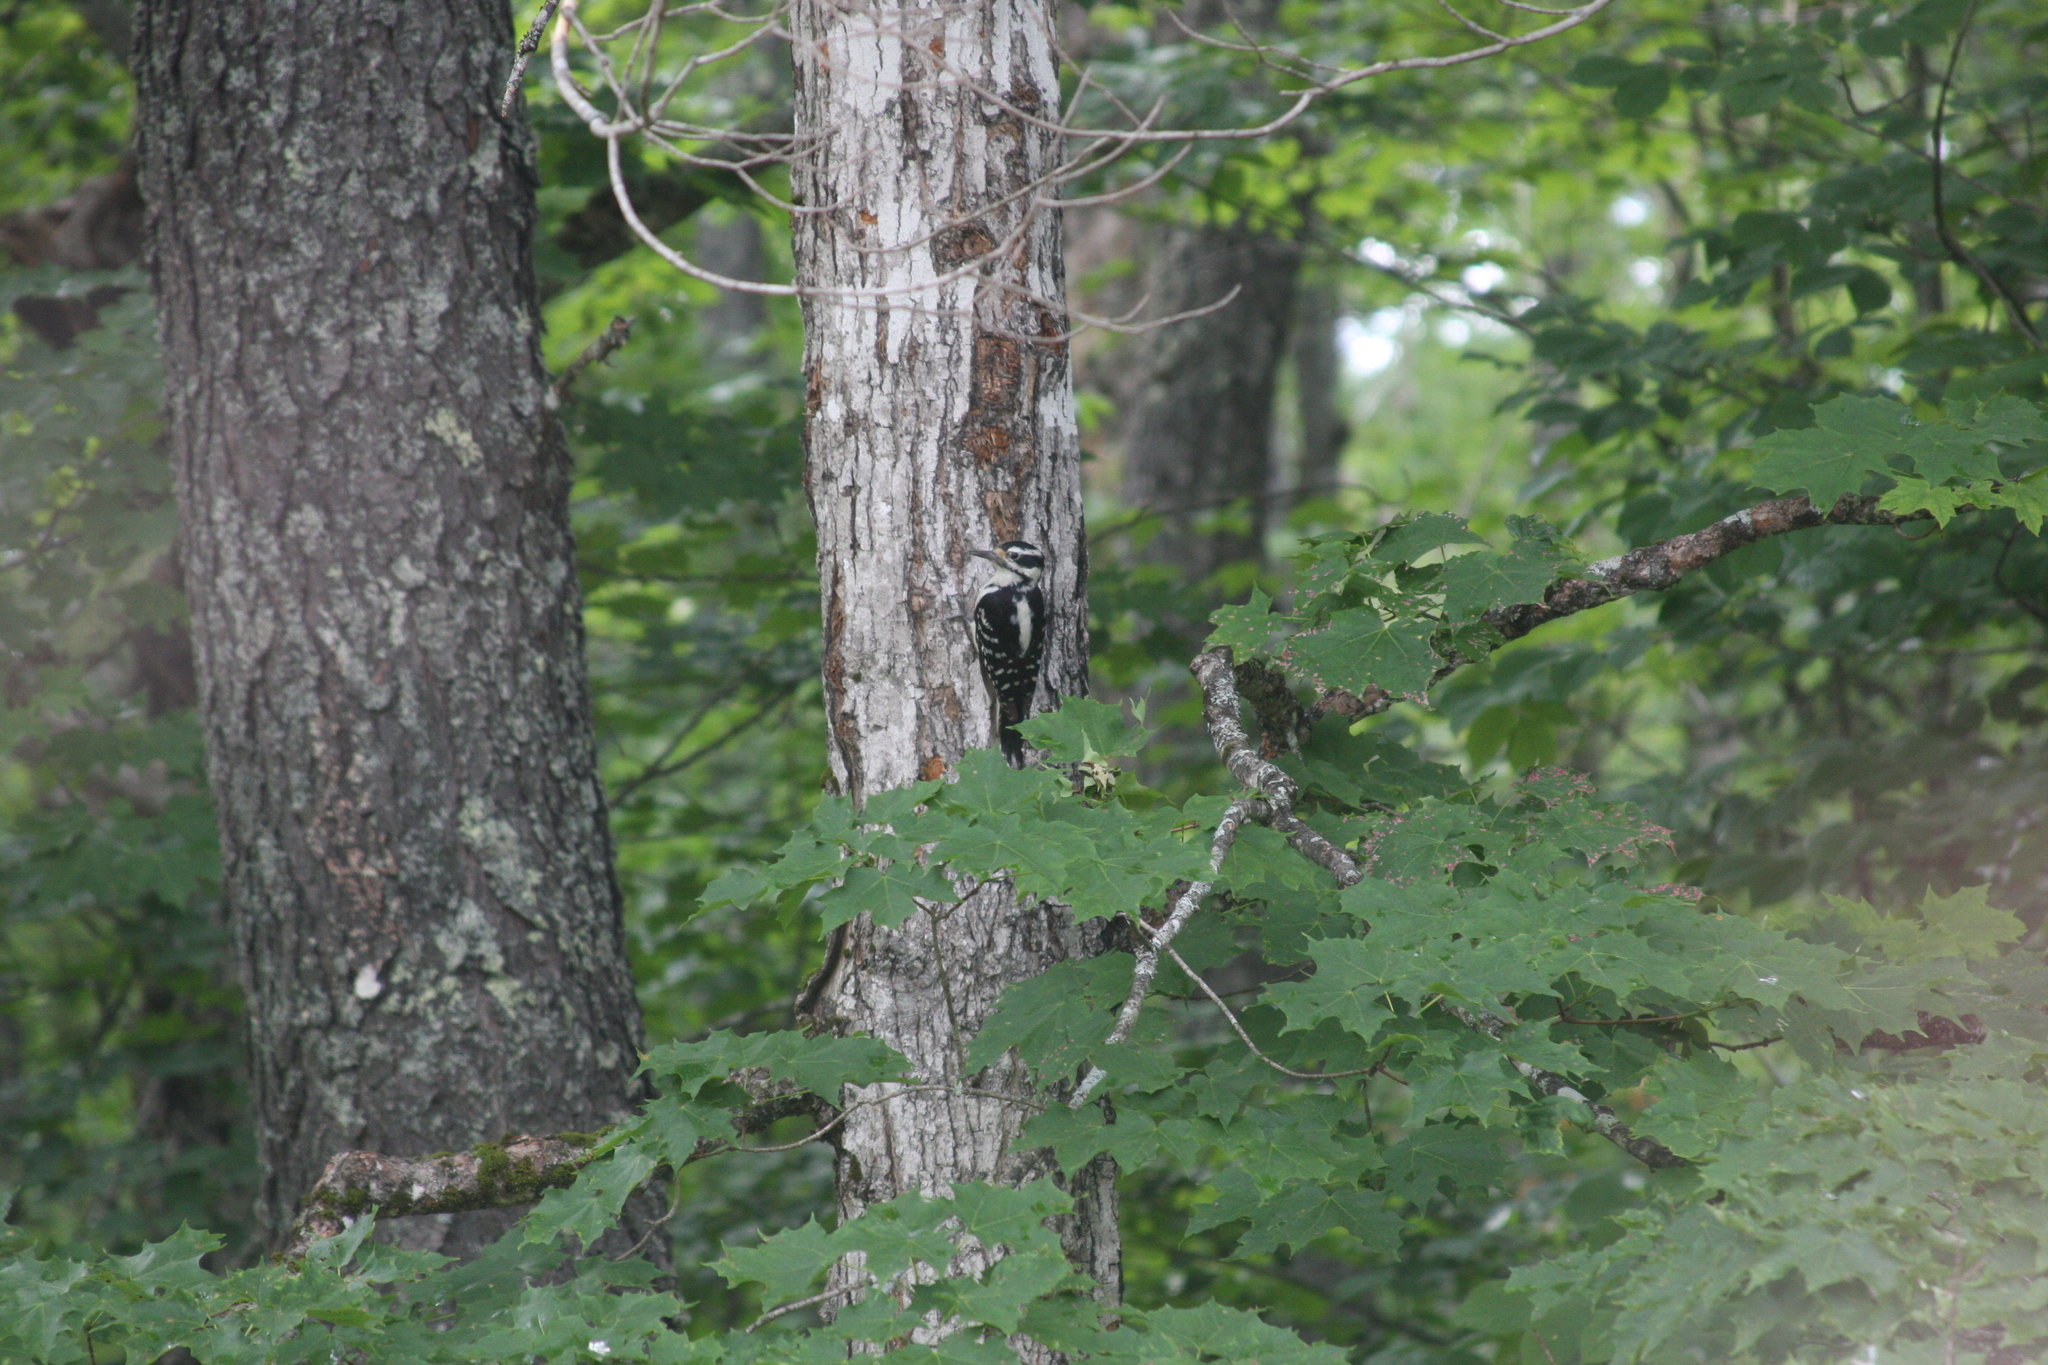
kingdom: Animalia
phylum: Chordata
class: Aves
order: Piciformes
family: Picidae
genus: Leuconotopicus
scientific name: Leuconotopicus villosus
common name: Hairy woodpecker
